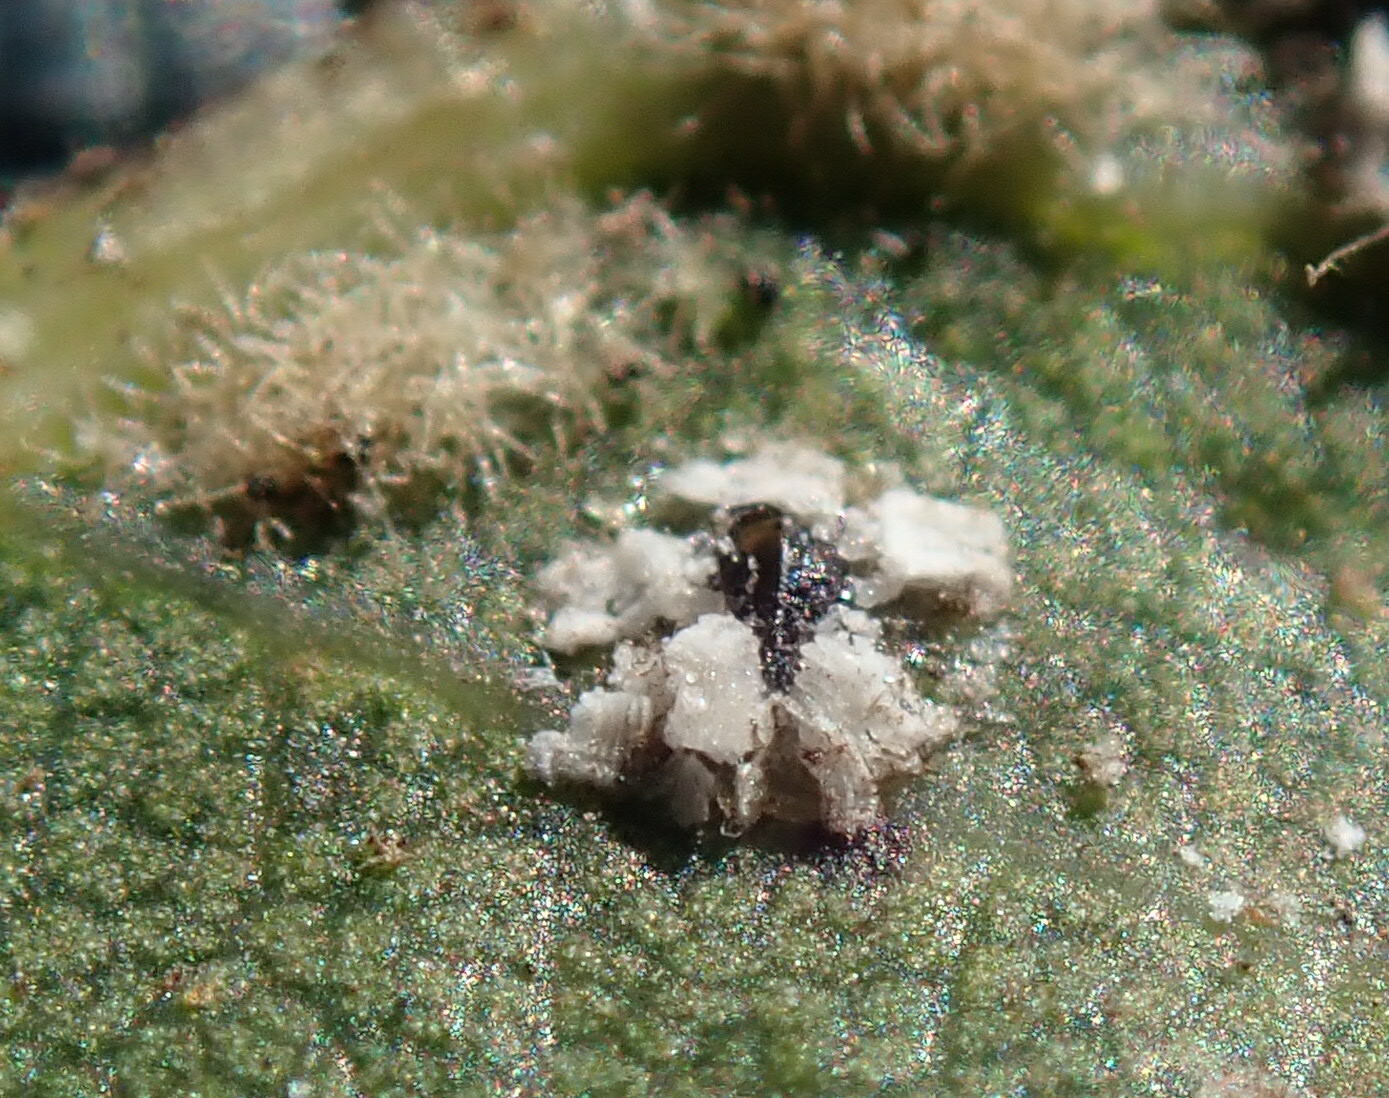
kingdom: Animalia
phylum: Arthropoda
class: Insecta
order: Hemiptera
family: Aleyrodidae
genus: Aleuroplatus
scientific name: Aleuroplatus coronata
